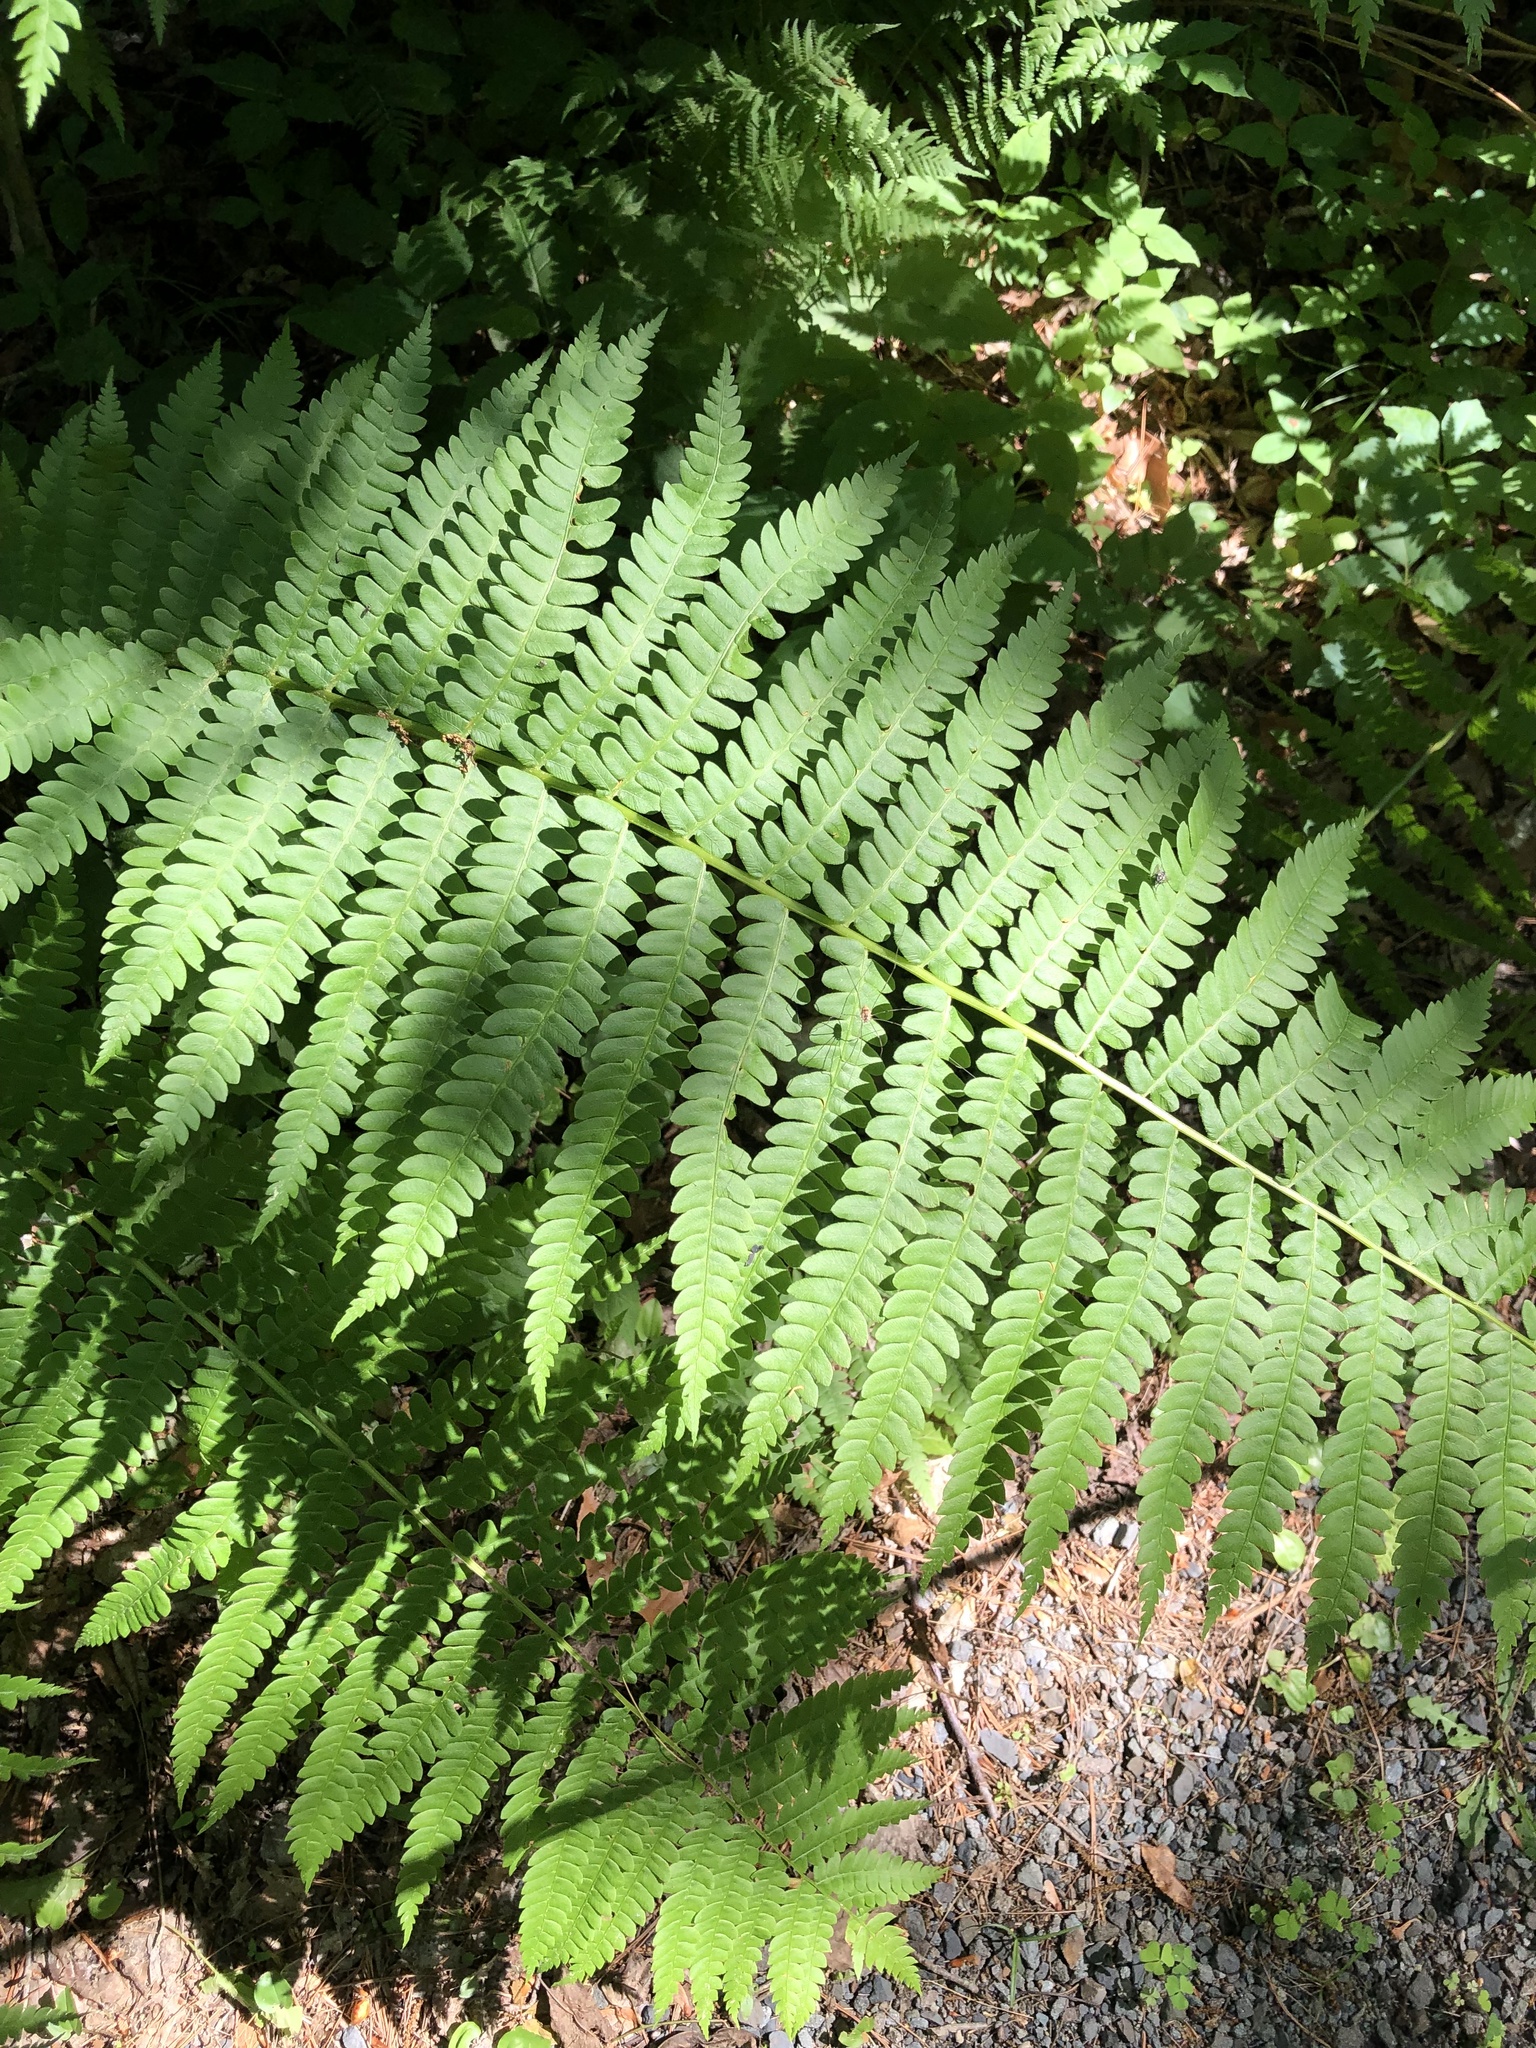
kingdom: Plantae
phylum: Tracheophyta
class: Polypodiopsida
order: Osmundales
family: Osmundaceae
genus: Osmundastrum
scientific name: Osmundastrum cinnamomeum
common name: Cinnamon fern
